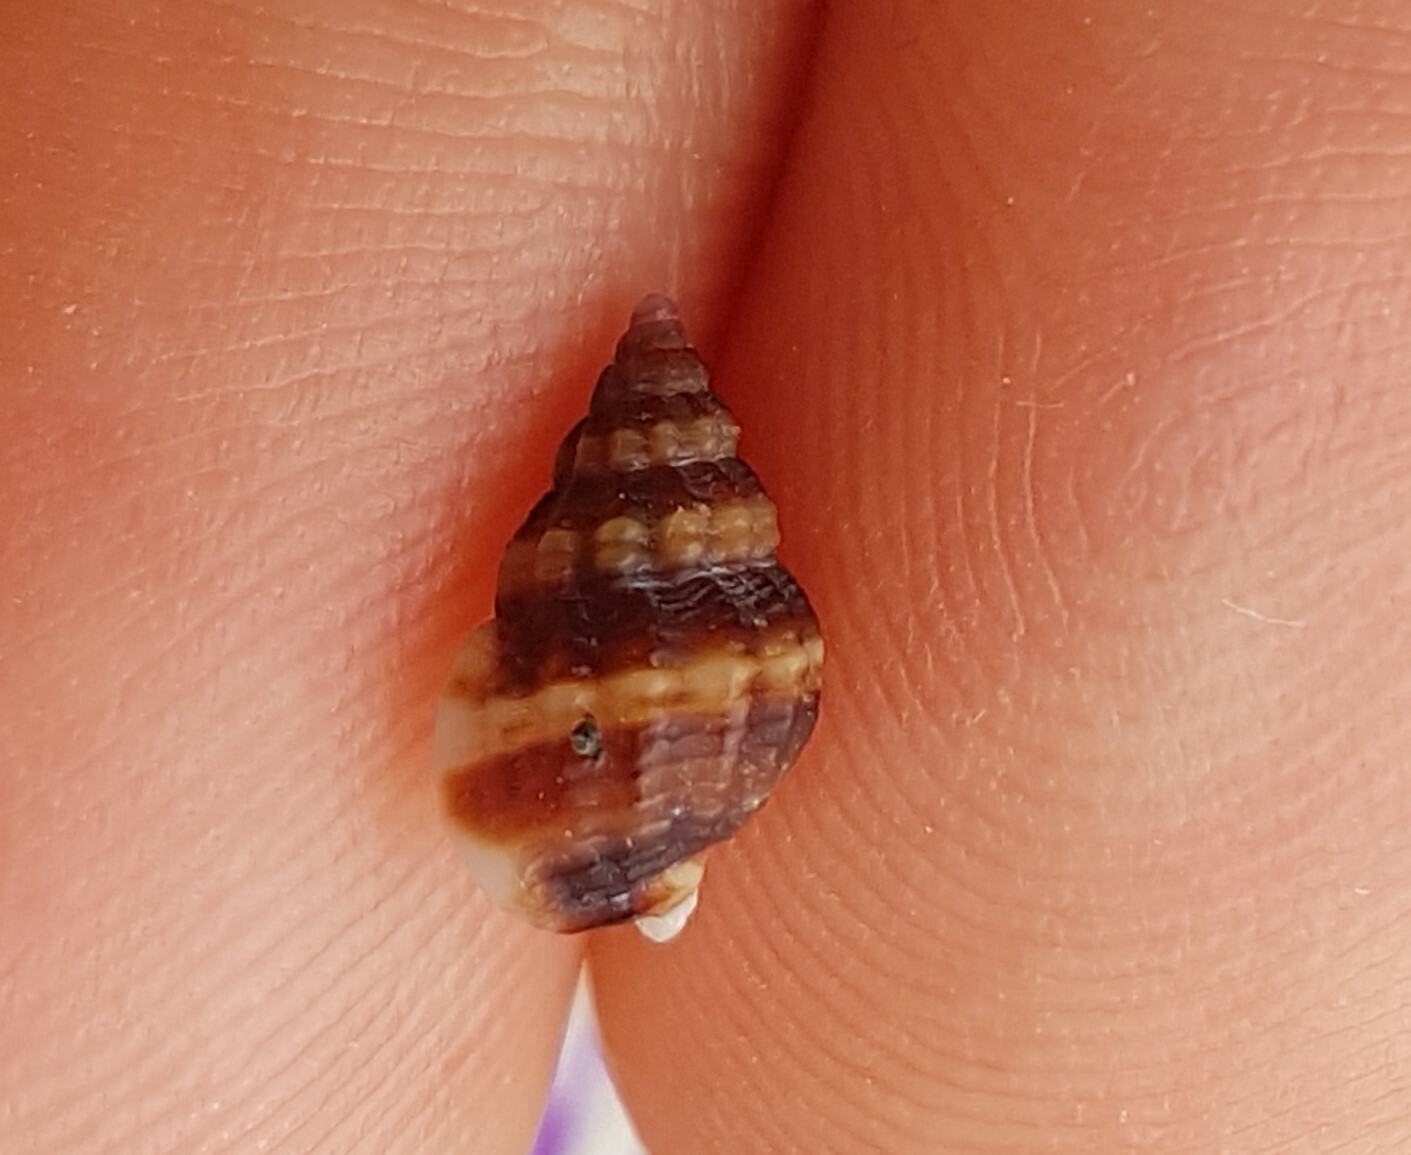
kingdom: Animalia
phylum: Mollusca
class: Gastropoda
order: Neogastropoda
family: Nassariidae
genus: Tritia
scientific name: Tritia incrassata
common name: Thick-lipped dog whelk
